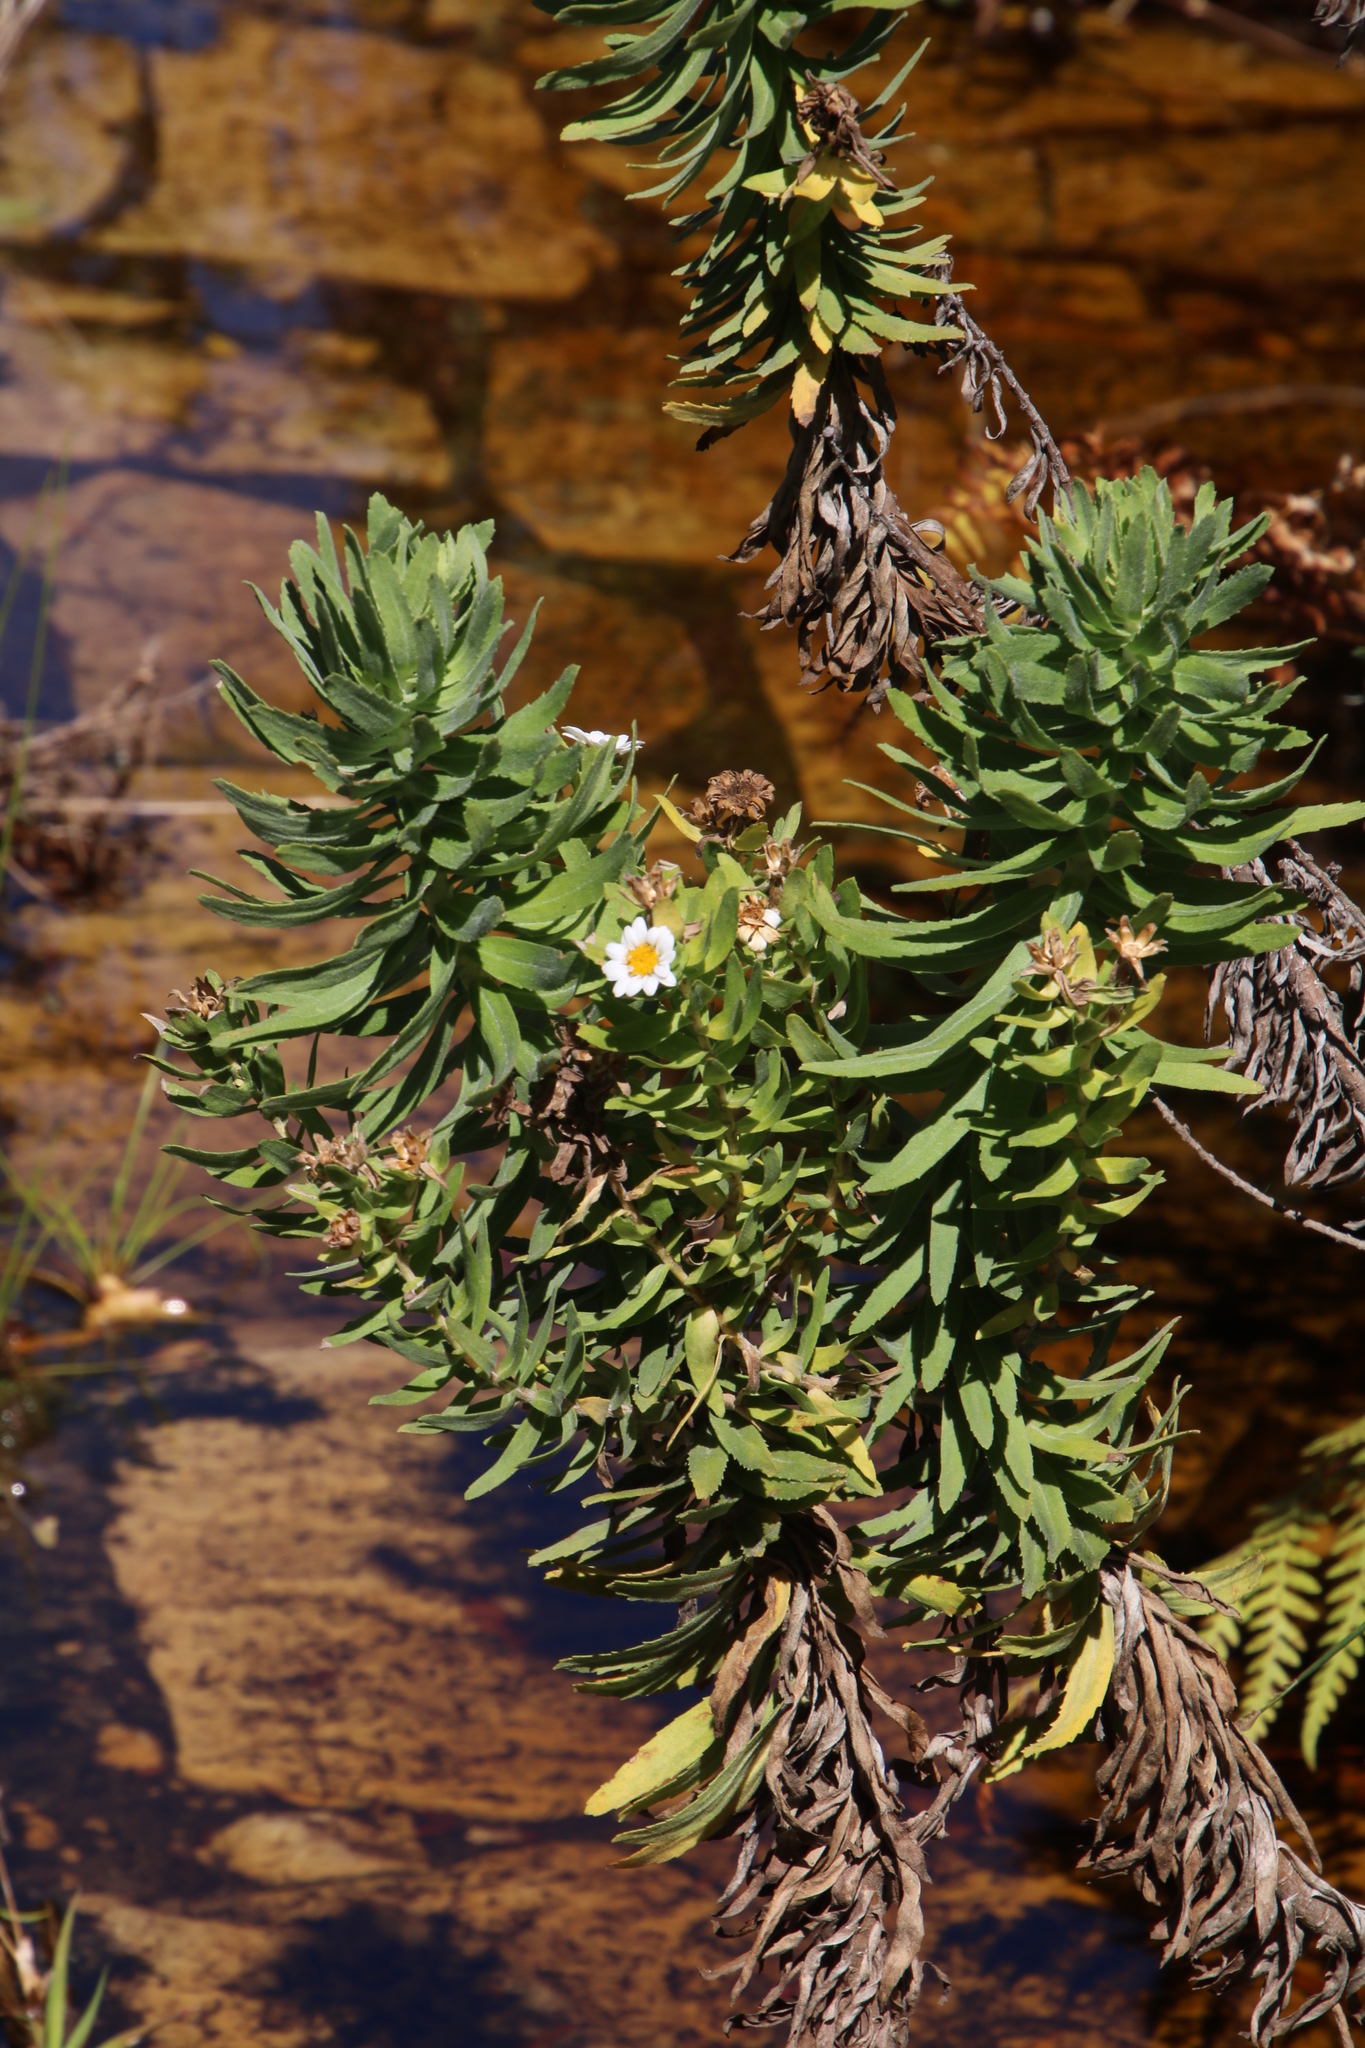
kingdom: Plantae
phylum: Tracheophyta
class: Magnoliopsida
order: Asterales
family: Asteraceae
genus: Osmitopsis
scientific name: Osmitopsis asteriscoides
